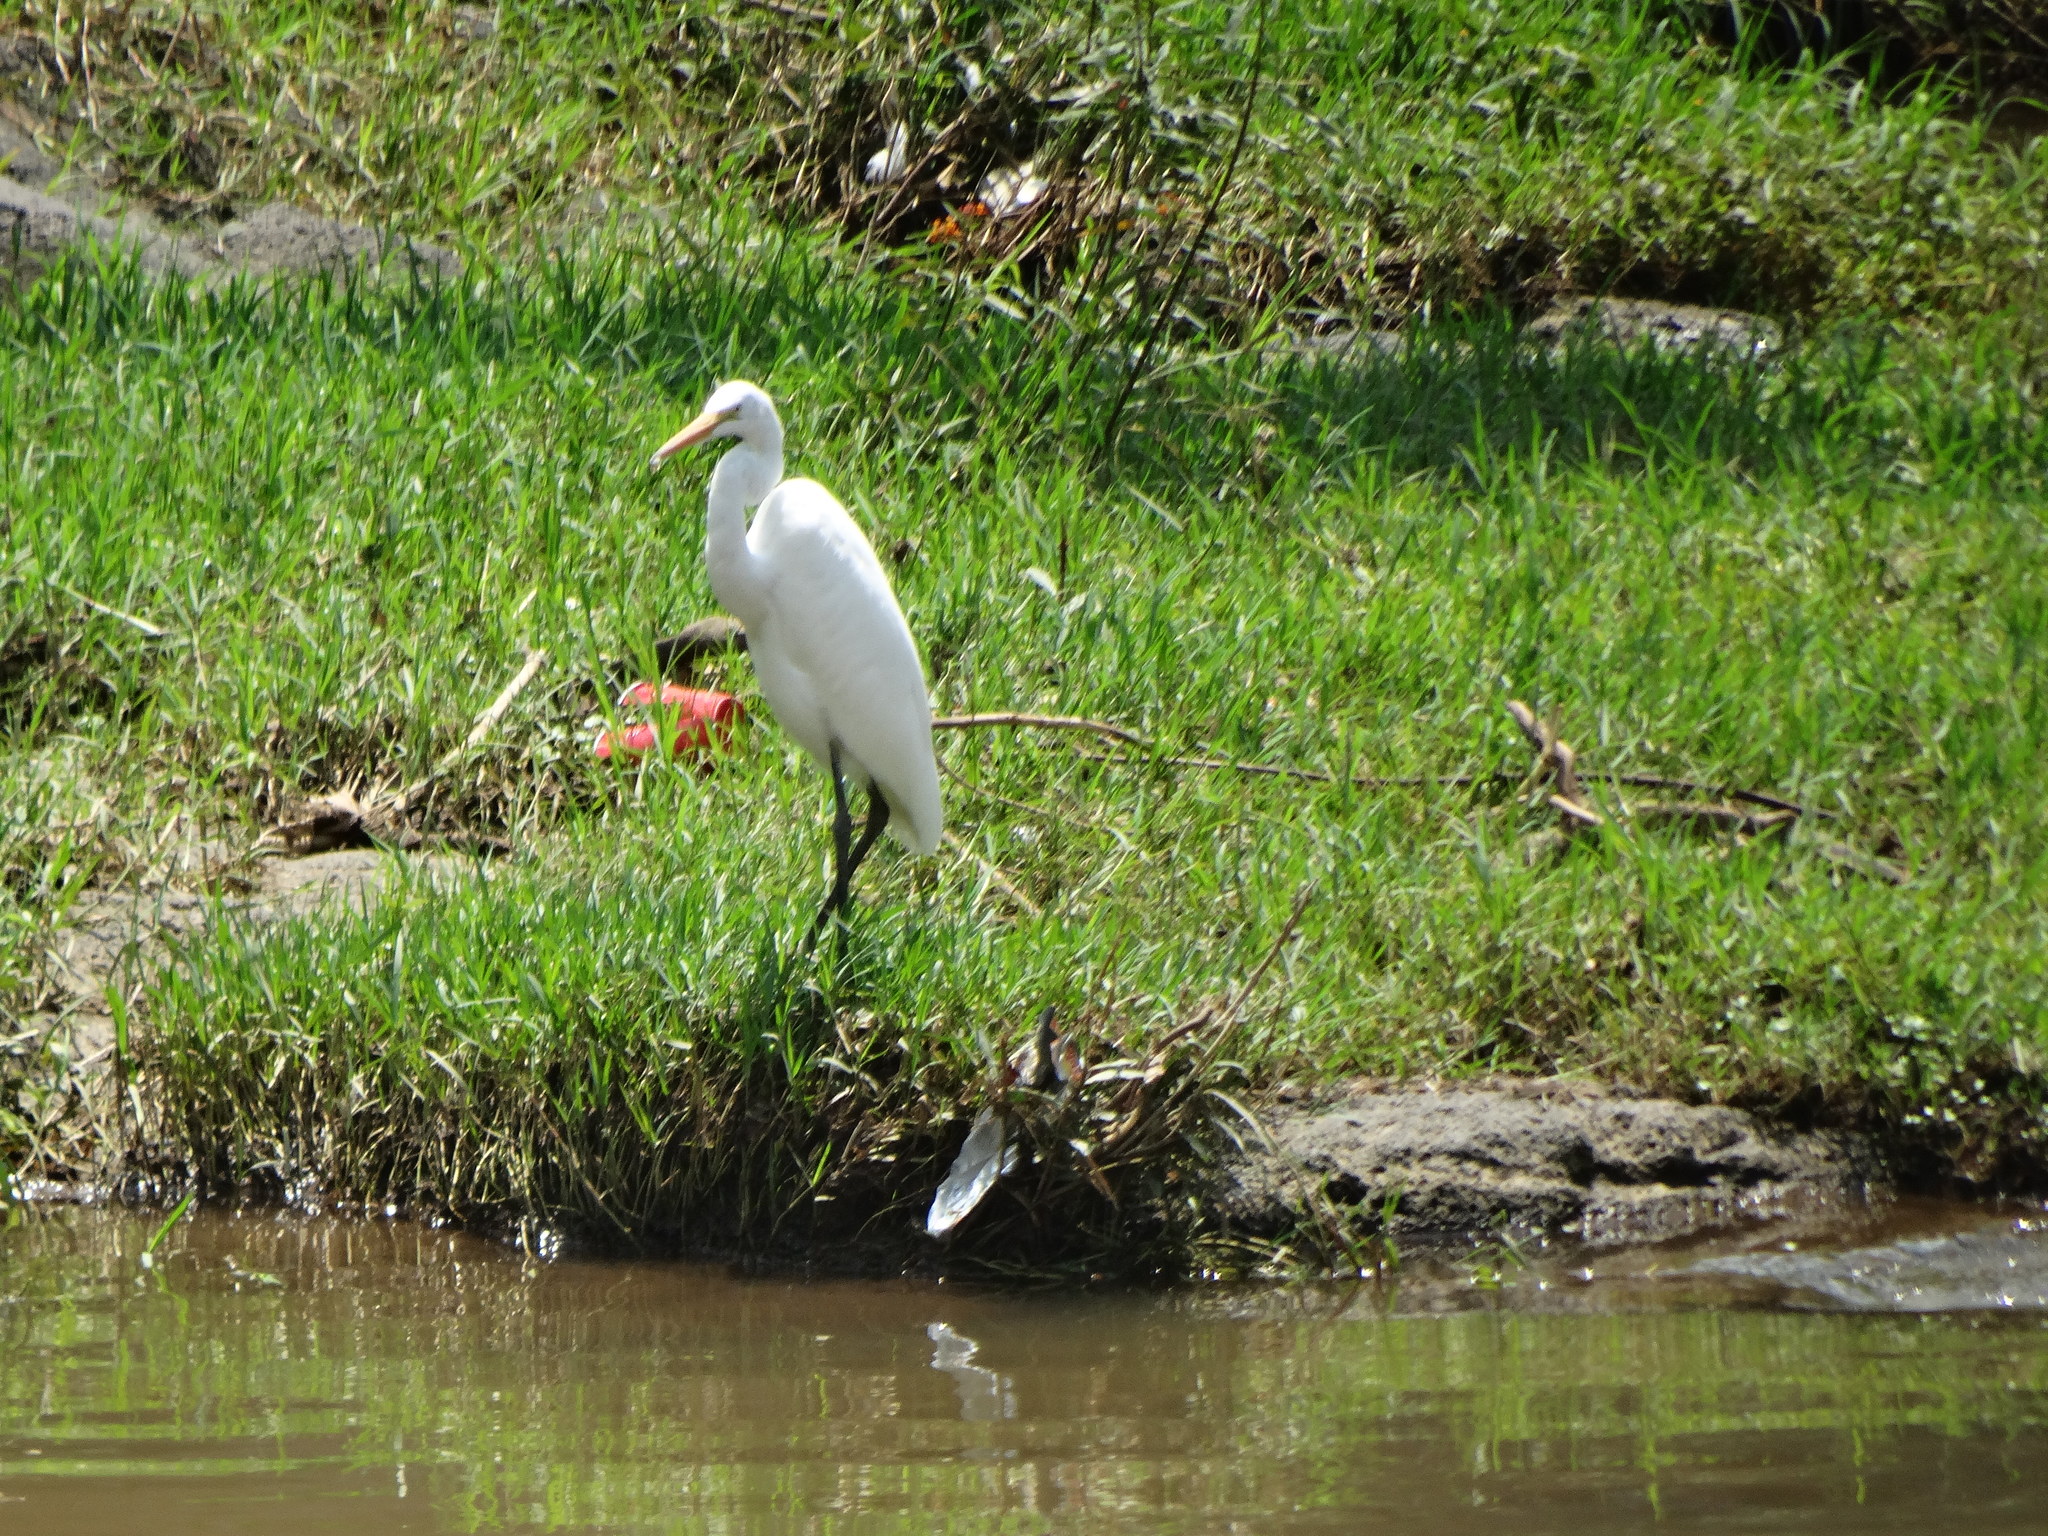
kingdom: Animalia
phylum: Chordata
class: Aves
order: Pelecaniformes
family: Ardeidae
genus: Ardea
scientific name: Ardea alba
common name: Great egret
